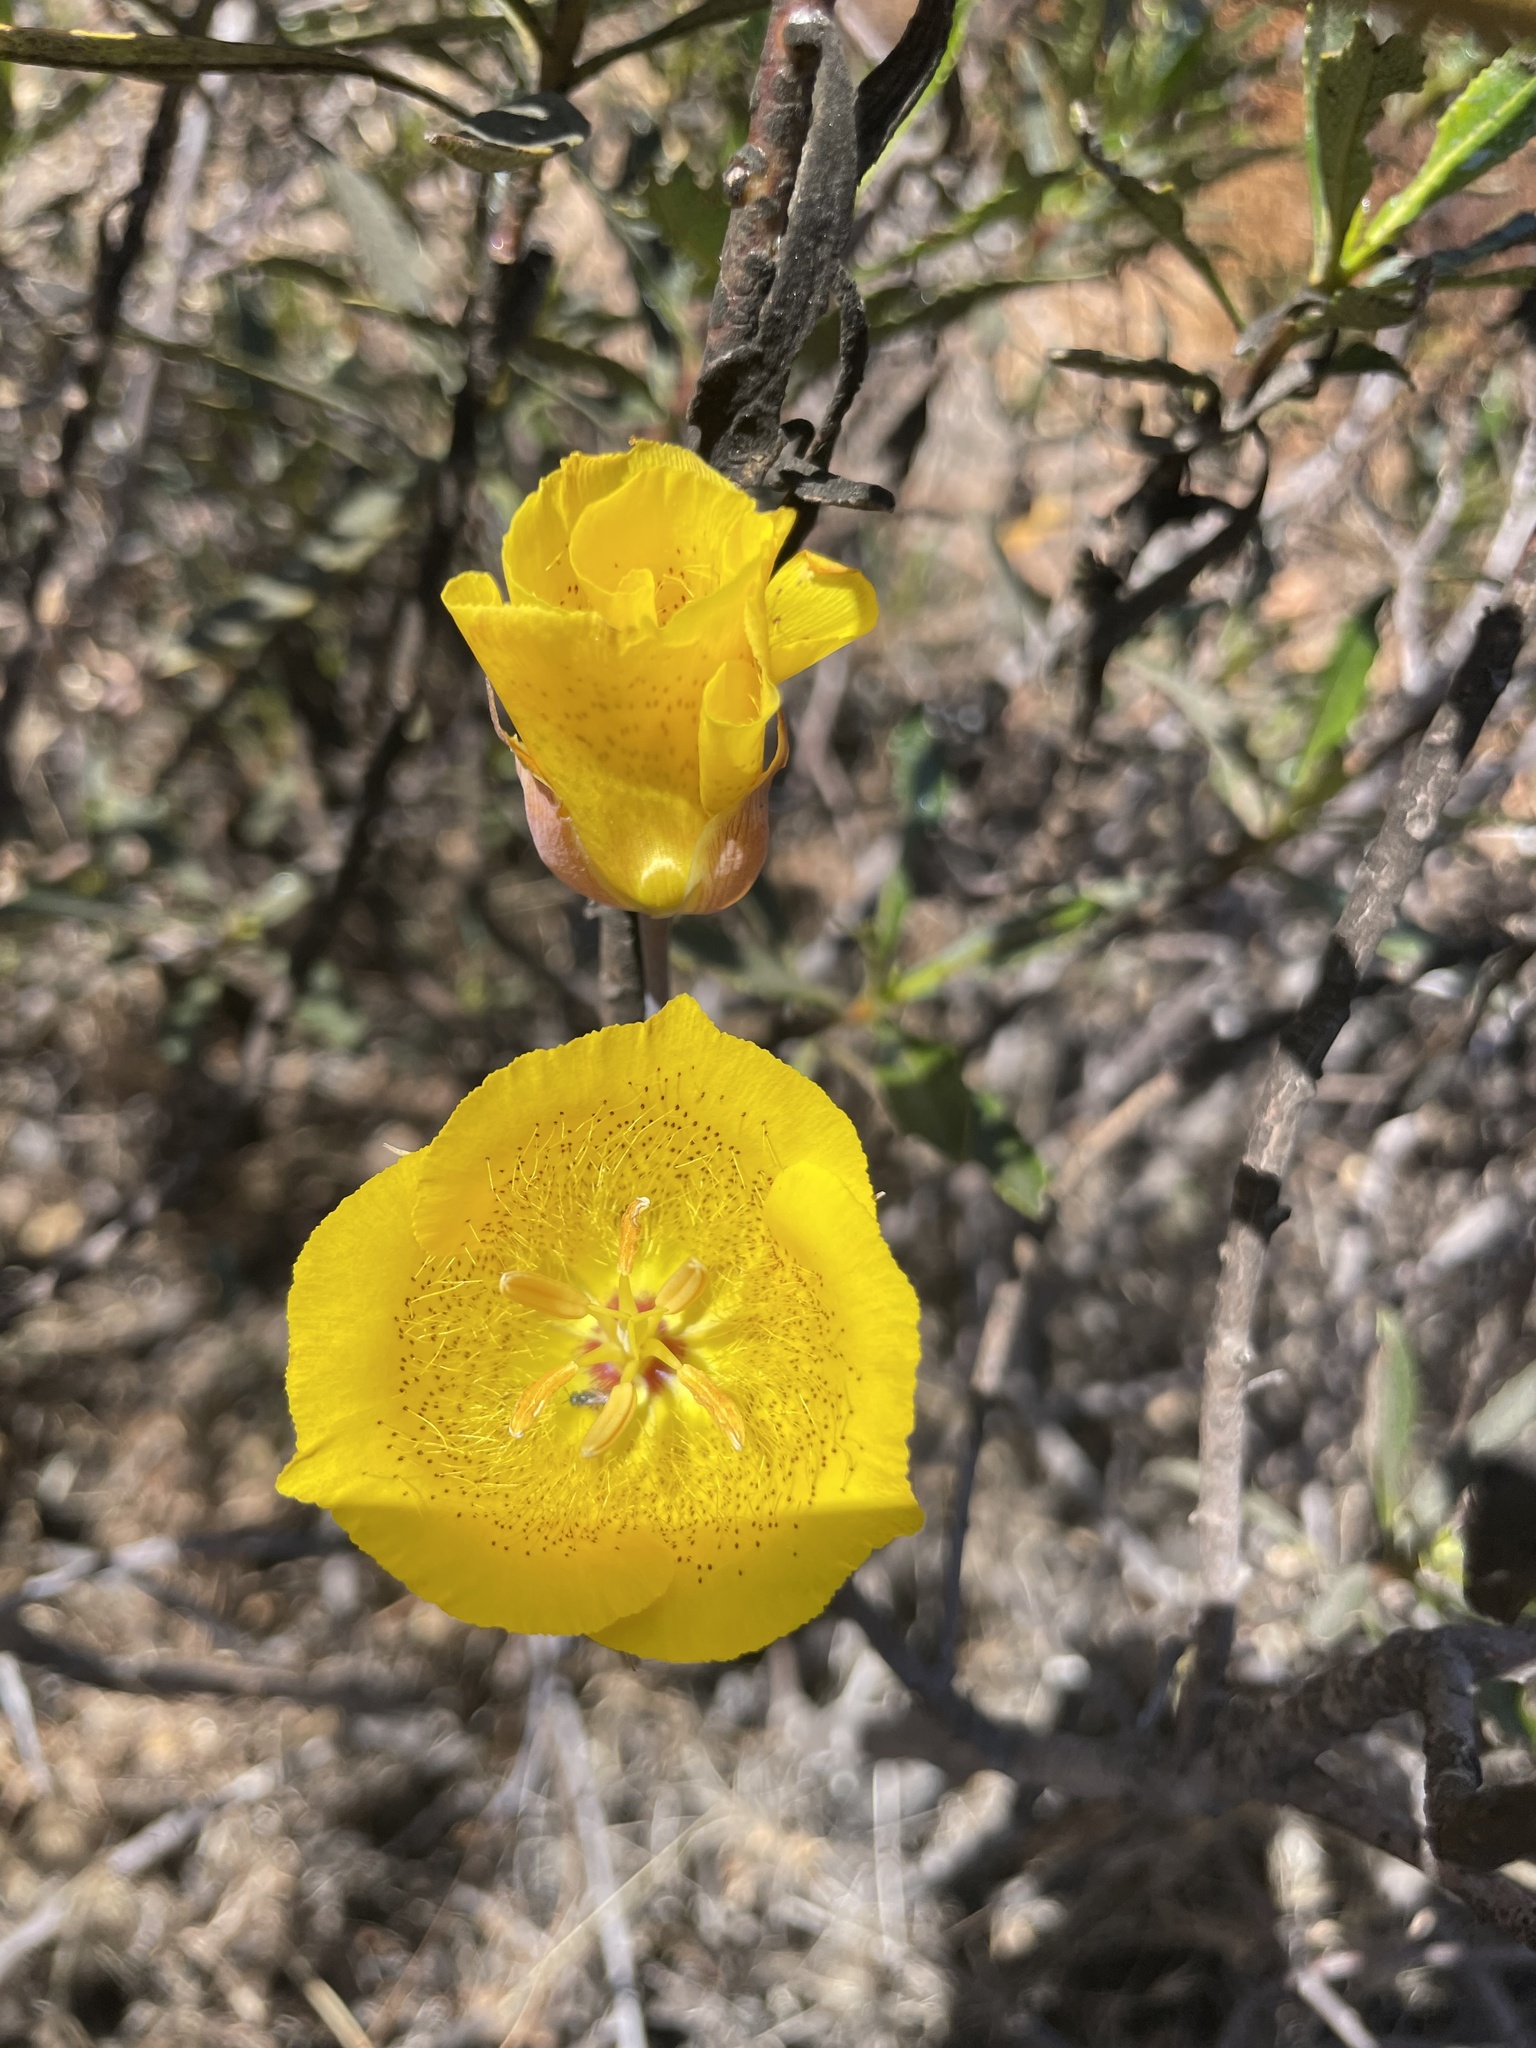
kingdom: Plantae
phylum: Tracheophyta
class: Liliopsida
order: Liliales
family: Liliaceae
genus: Calochortus
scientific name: Calochortus weedii
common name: Weed's mariposa-lily
